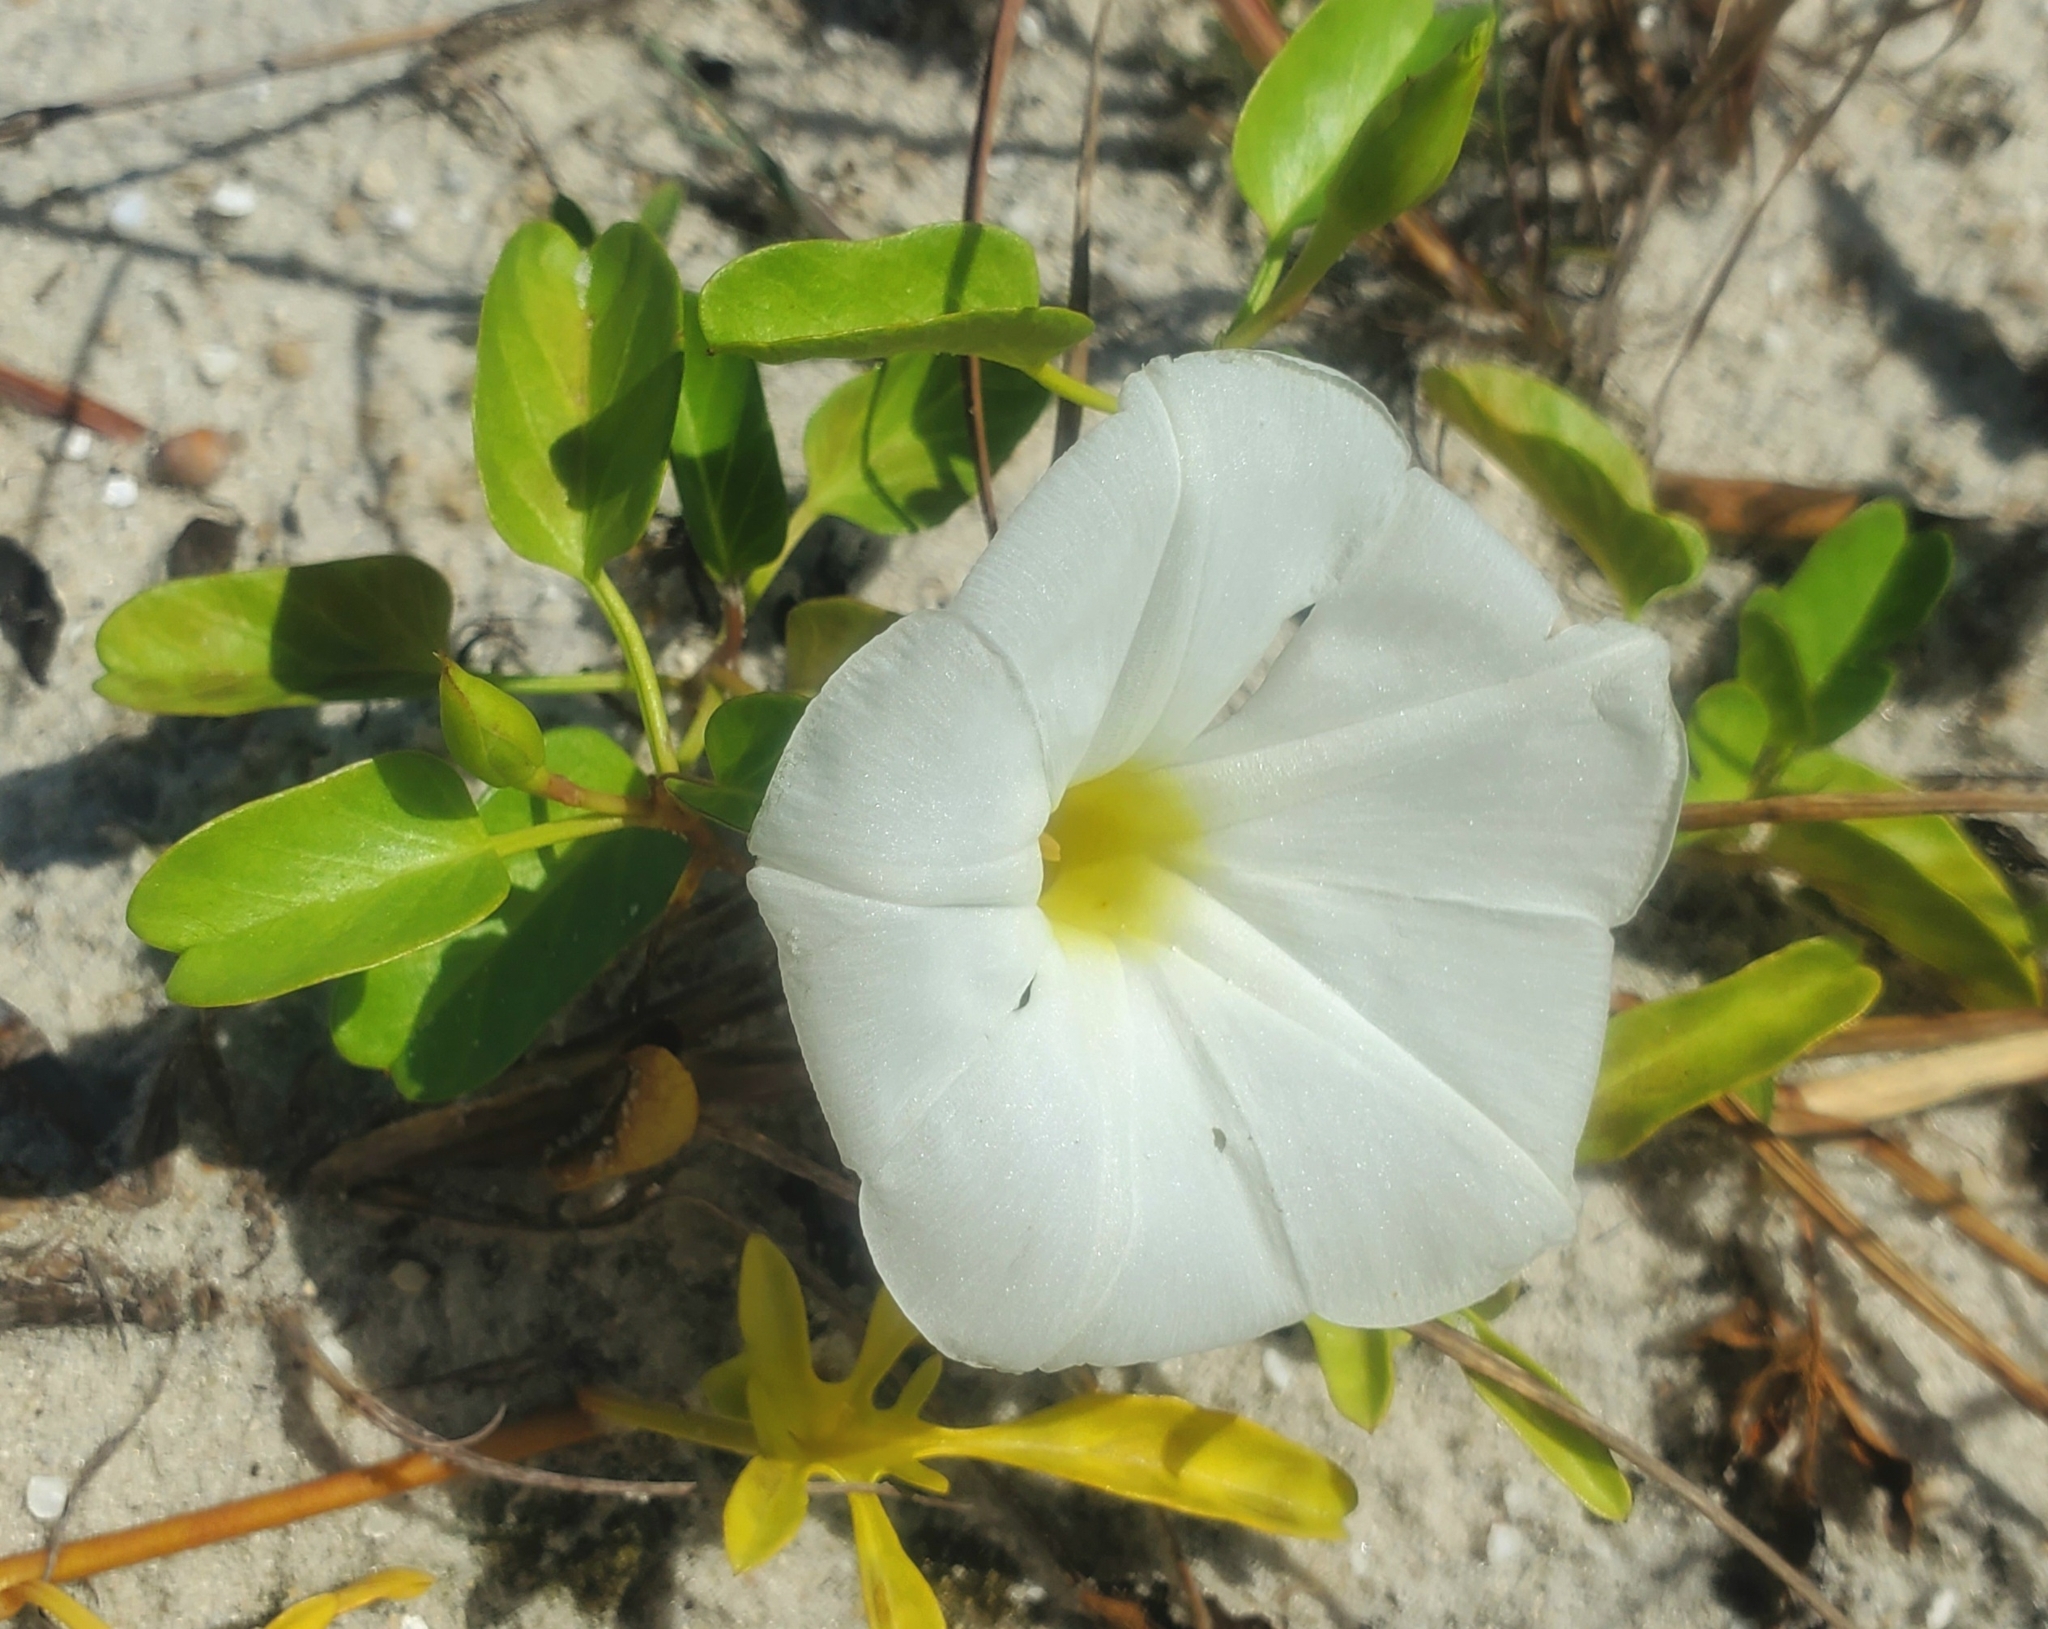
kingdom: Plantae
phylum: Tracheophyta
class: Magnoliopsida
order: Solanales
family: Convolvulaceae
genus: Ipomoea
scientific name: Ipomoea imperati
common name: Fiddle-leaf morning-glory
